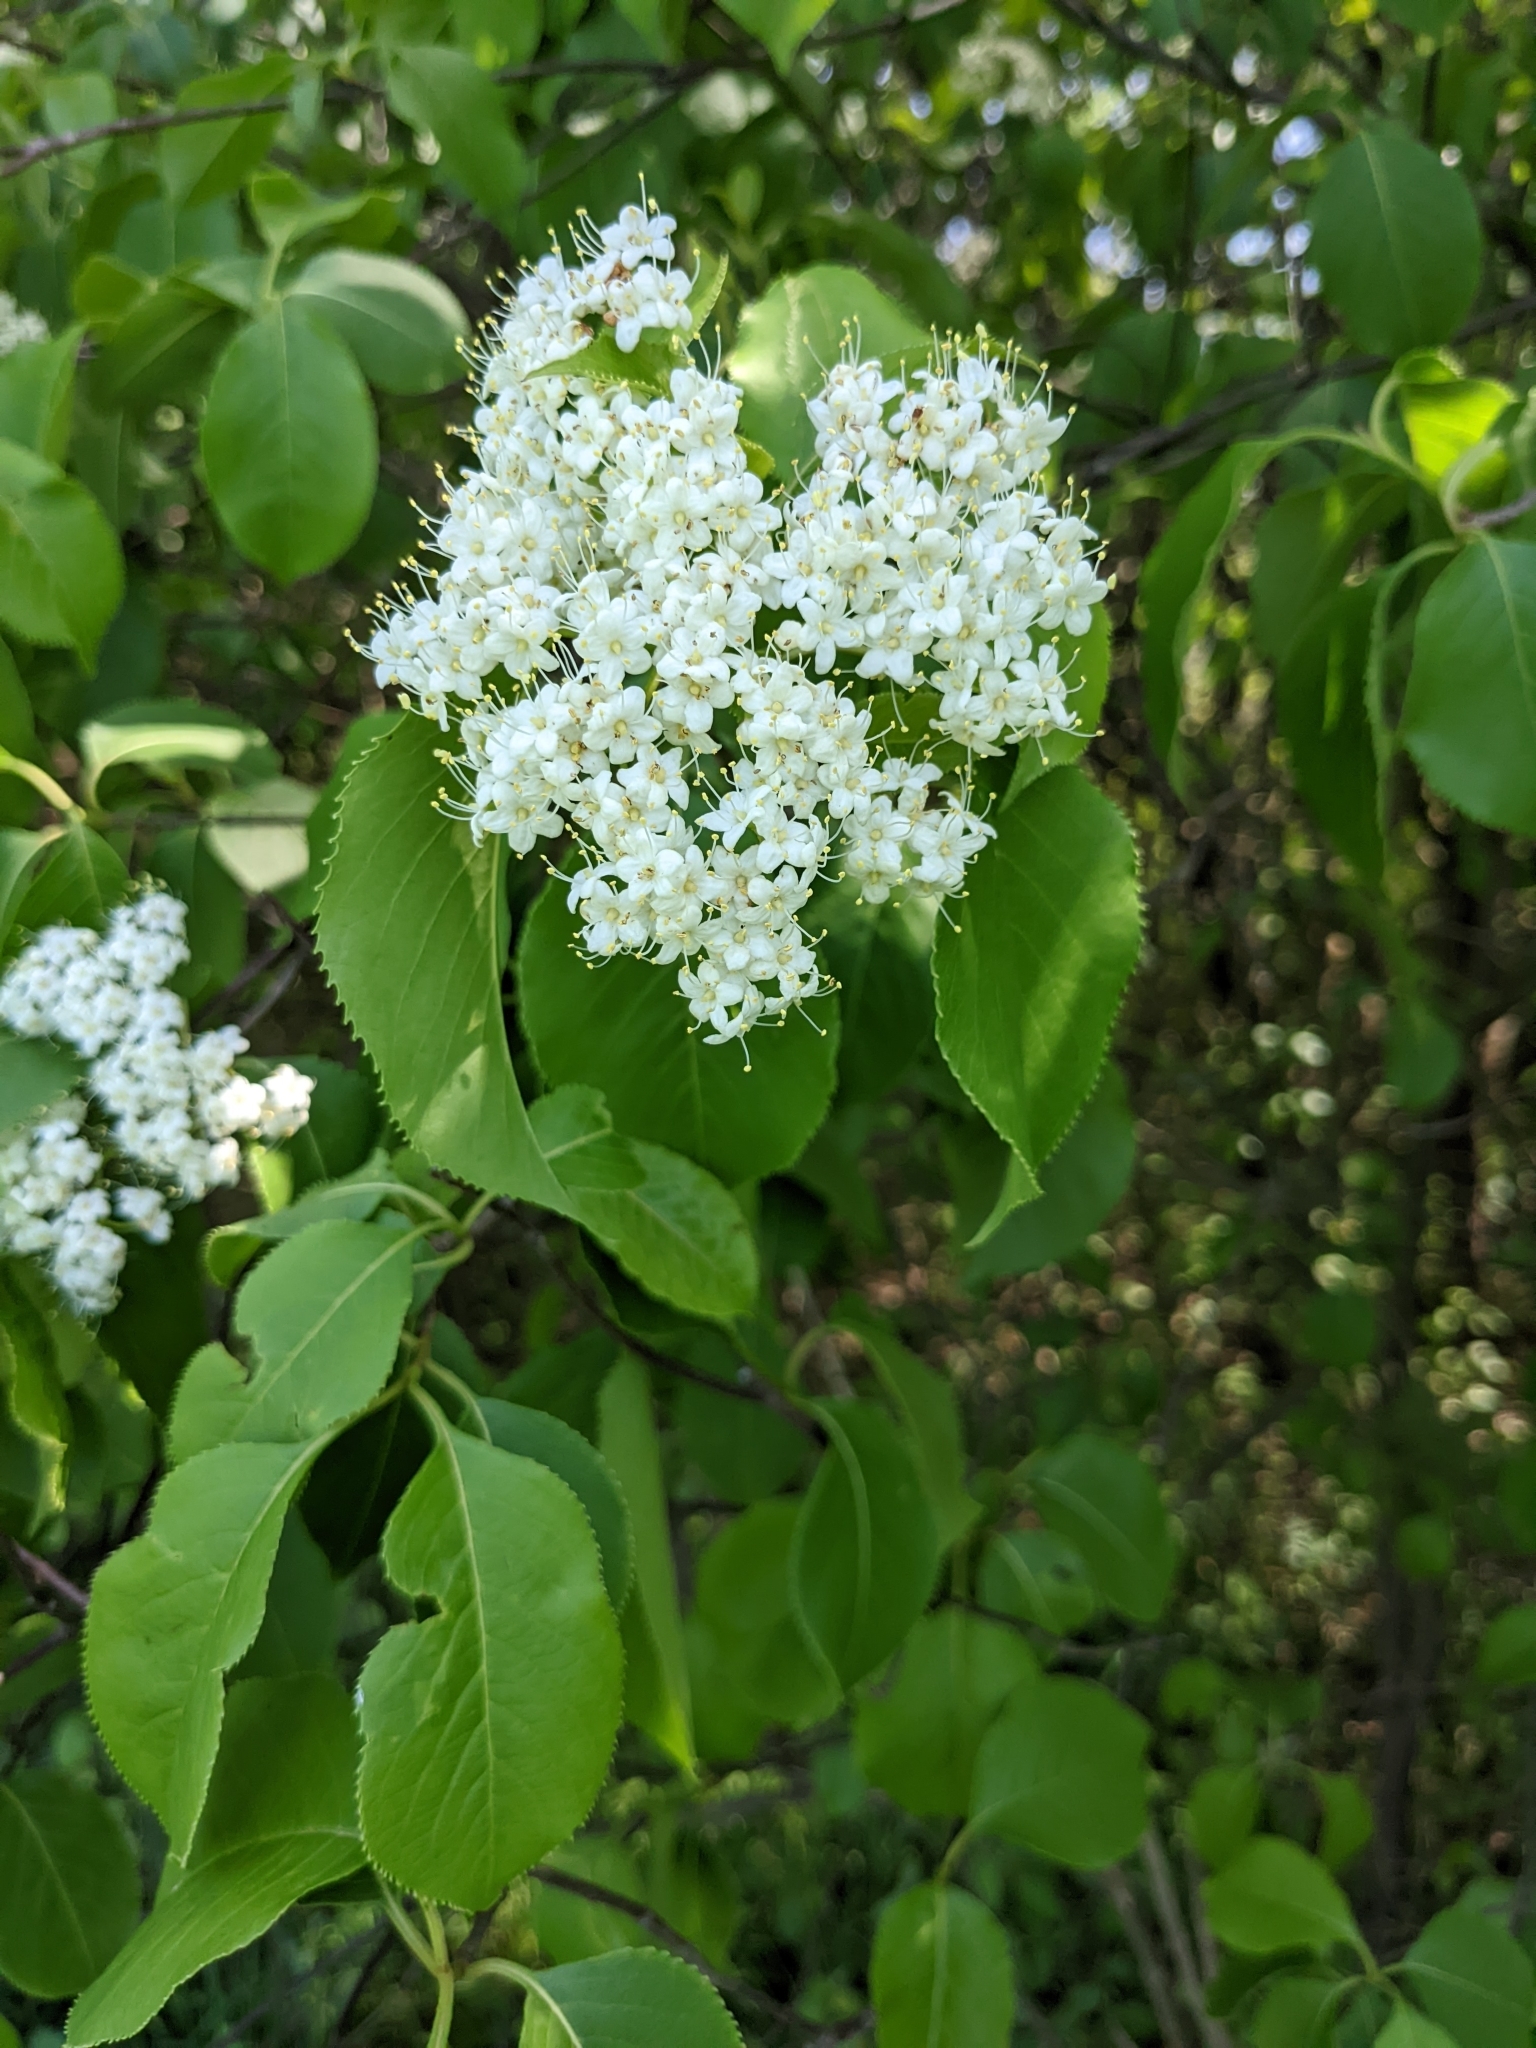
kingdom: Plantae
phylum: Tracheophyta
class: Magnoliopsida
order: Dipsacales
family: Viburnaceae
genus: Viburnum
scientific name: Viburnum lentago
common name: Black haw
